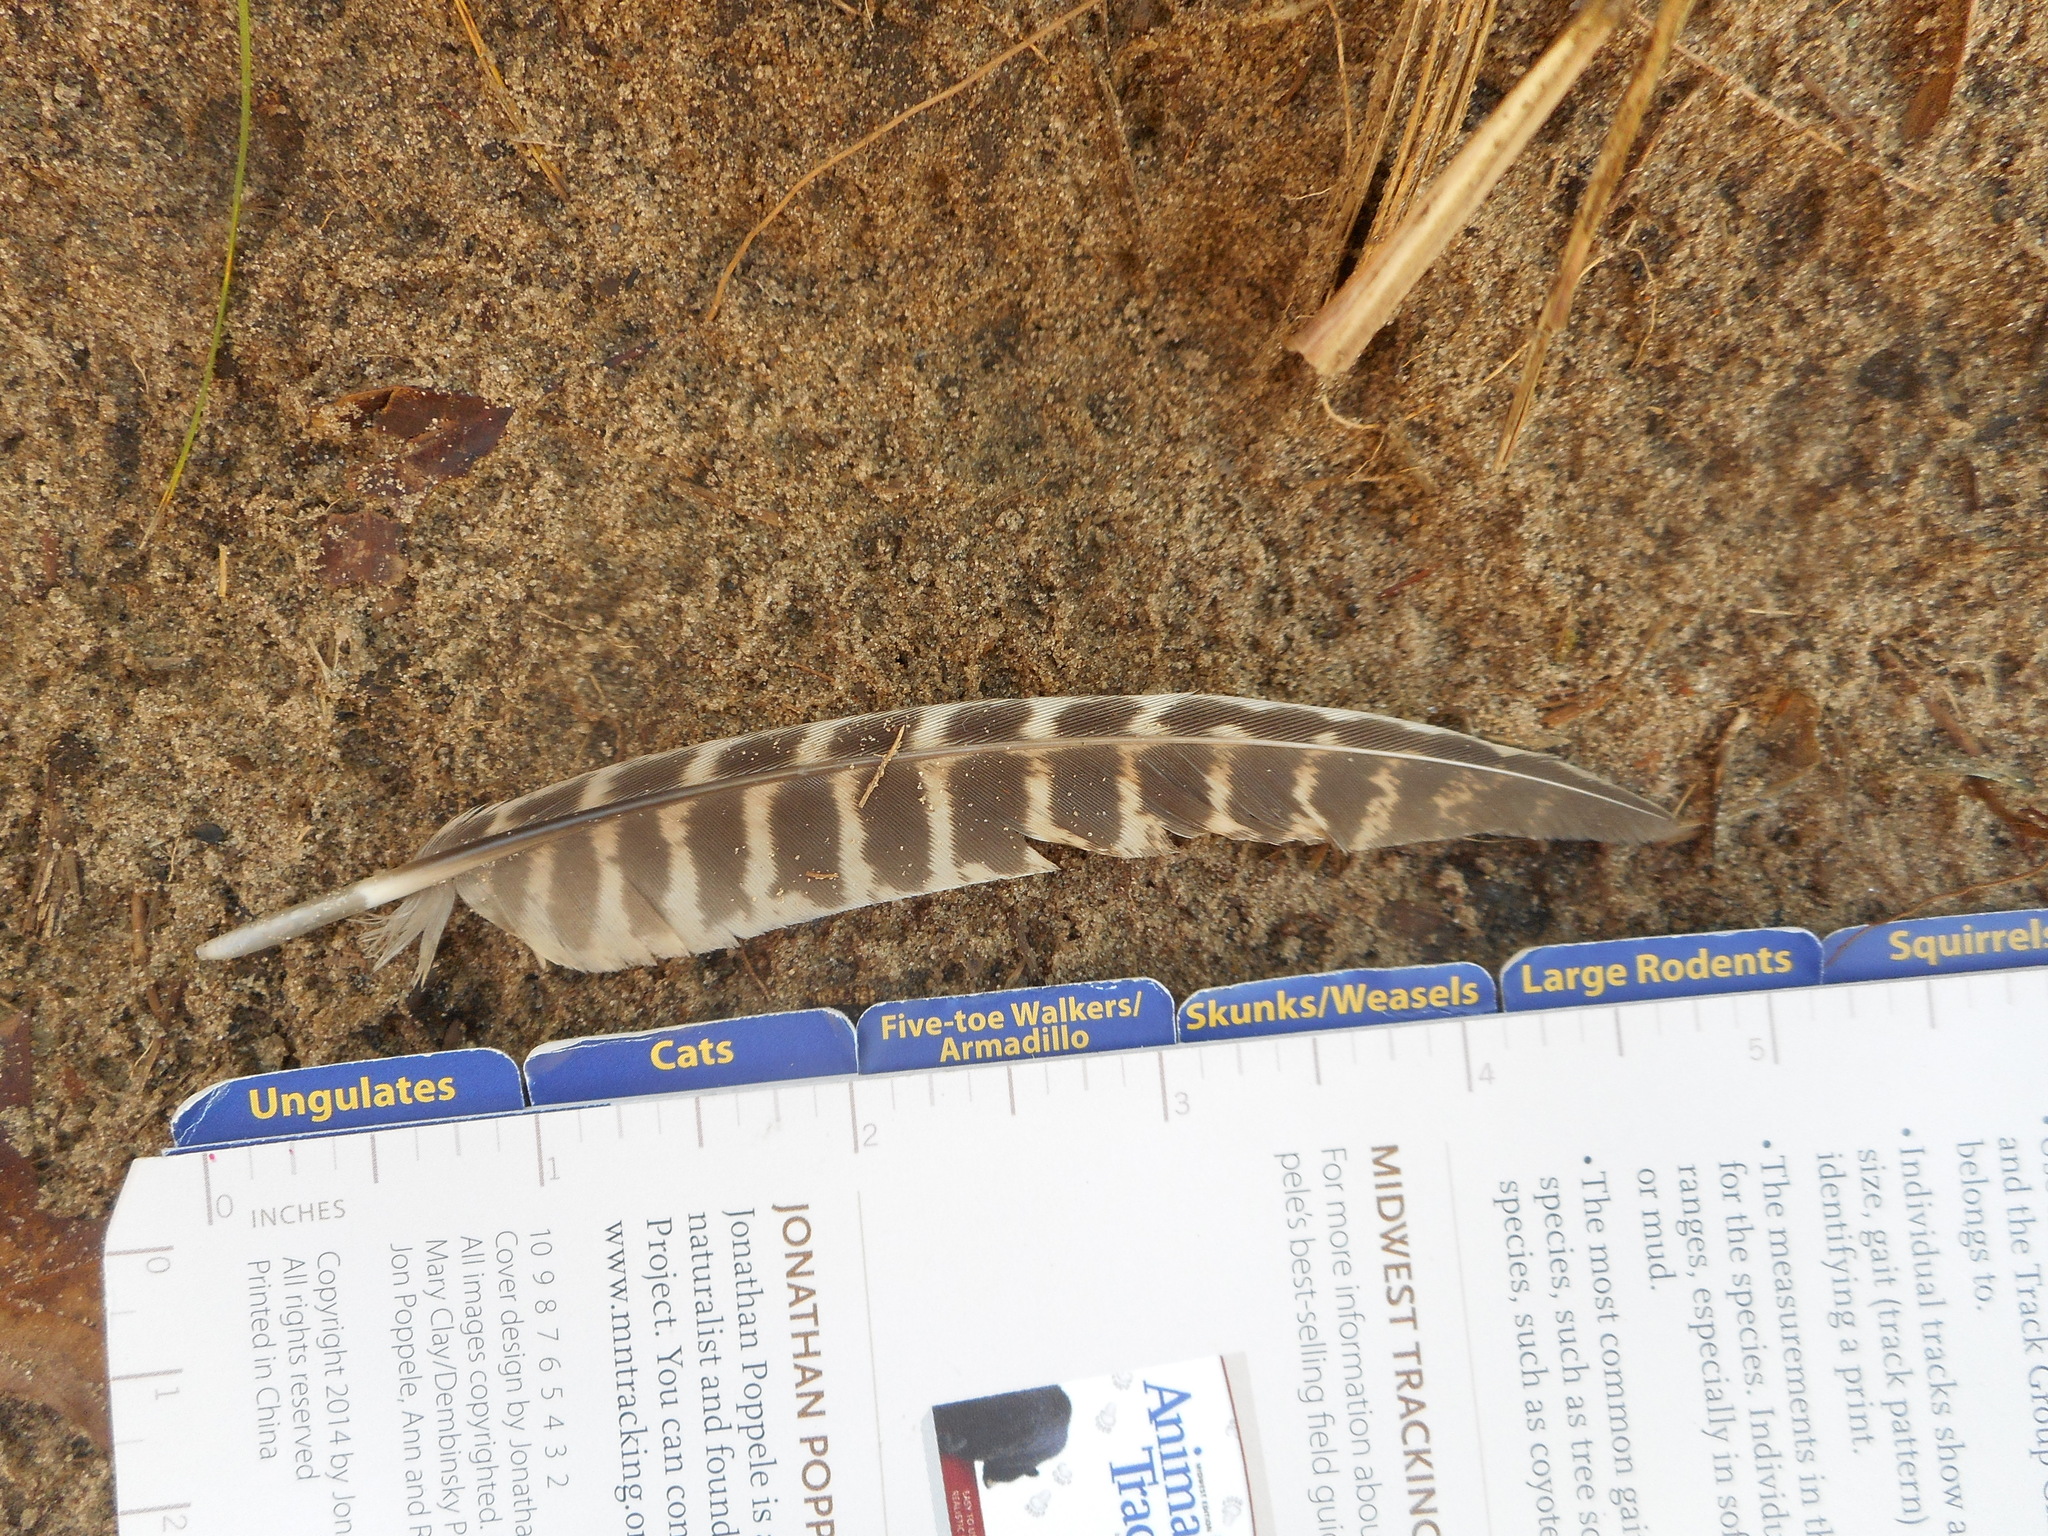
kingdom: Animalia
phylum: Chordata
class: Aves
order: Galliformes
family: Phasianidae
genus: Phasianus
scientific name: Phasianus colchicus
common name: Common pheasant
